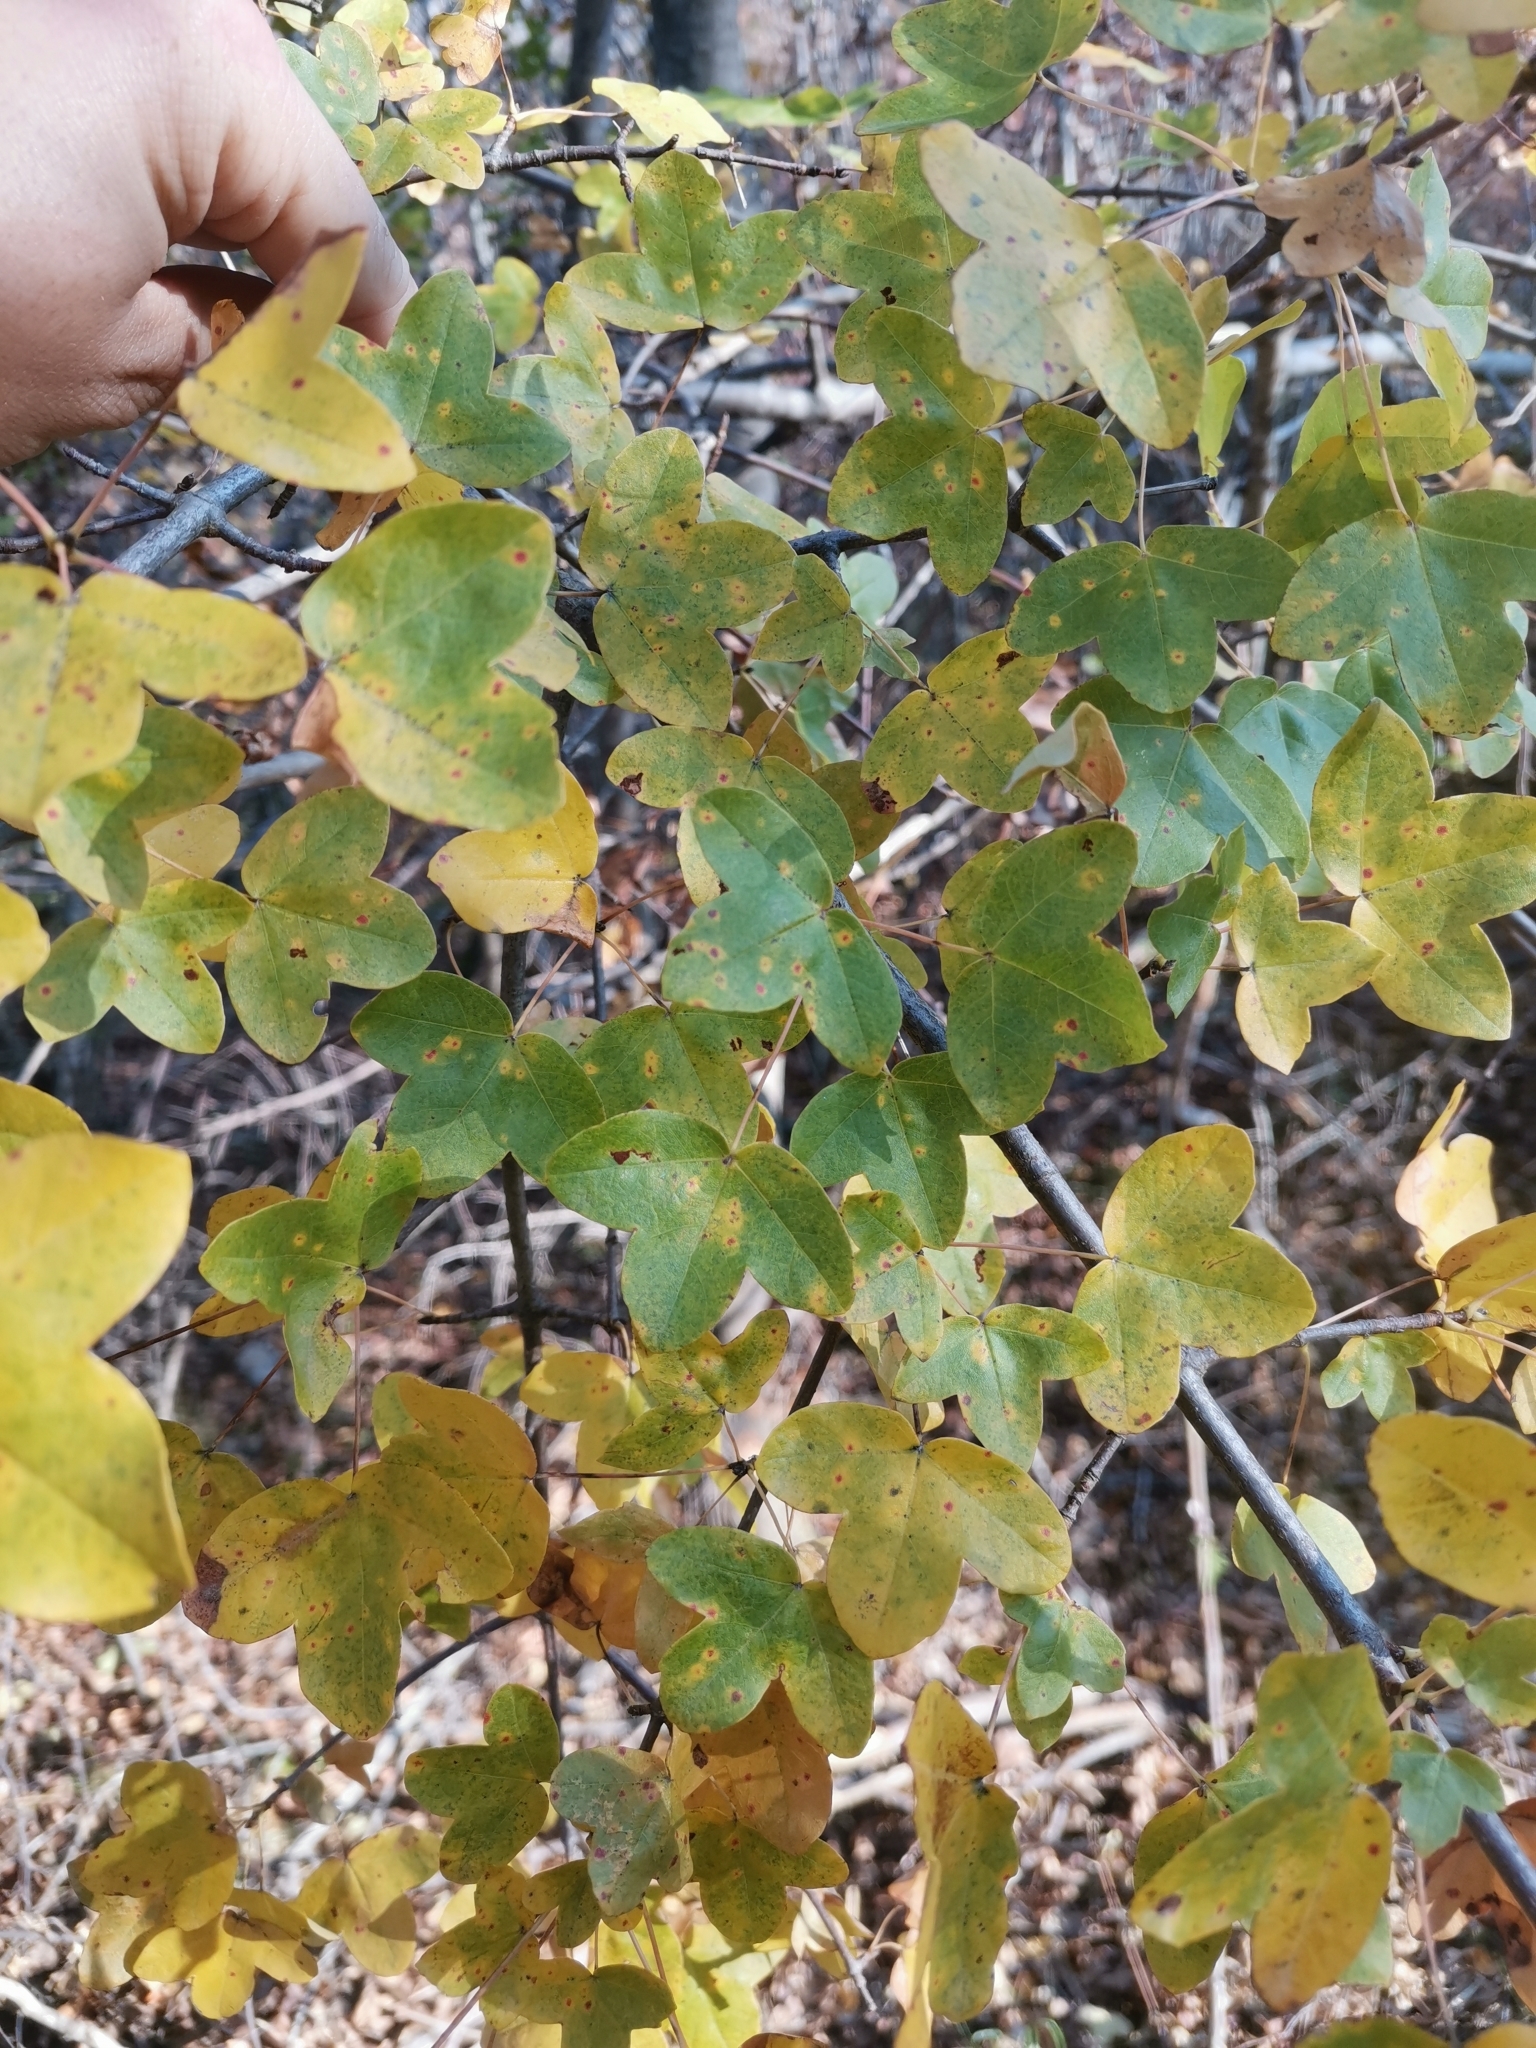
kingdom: Plantae
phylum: Tracheophyta
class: Magnoliopsida
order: Sapindales
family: Sapindaceae
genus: Acer
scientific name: Acer monspessulanum
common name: Montpellier maple
